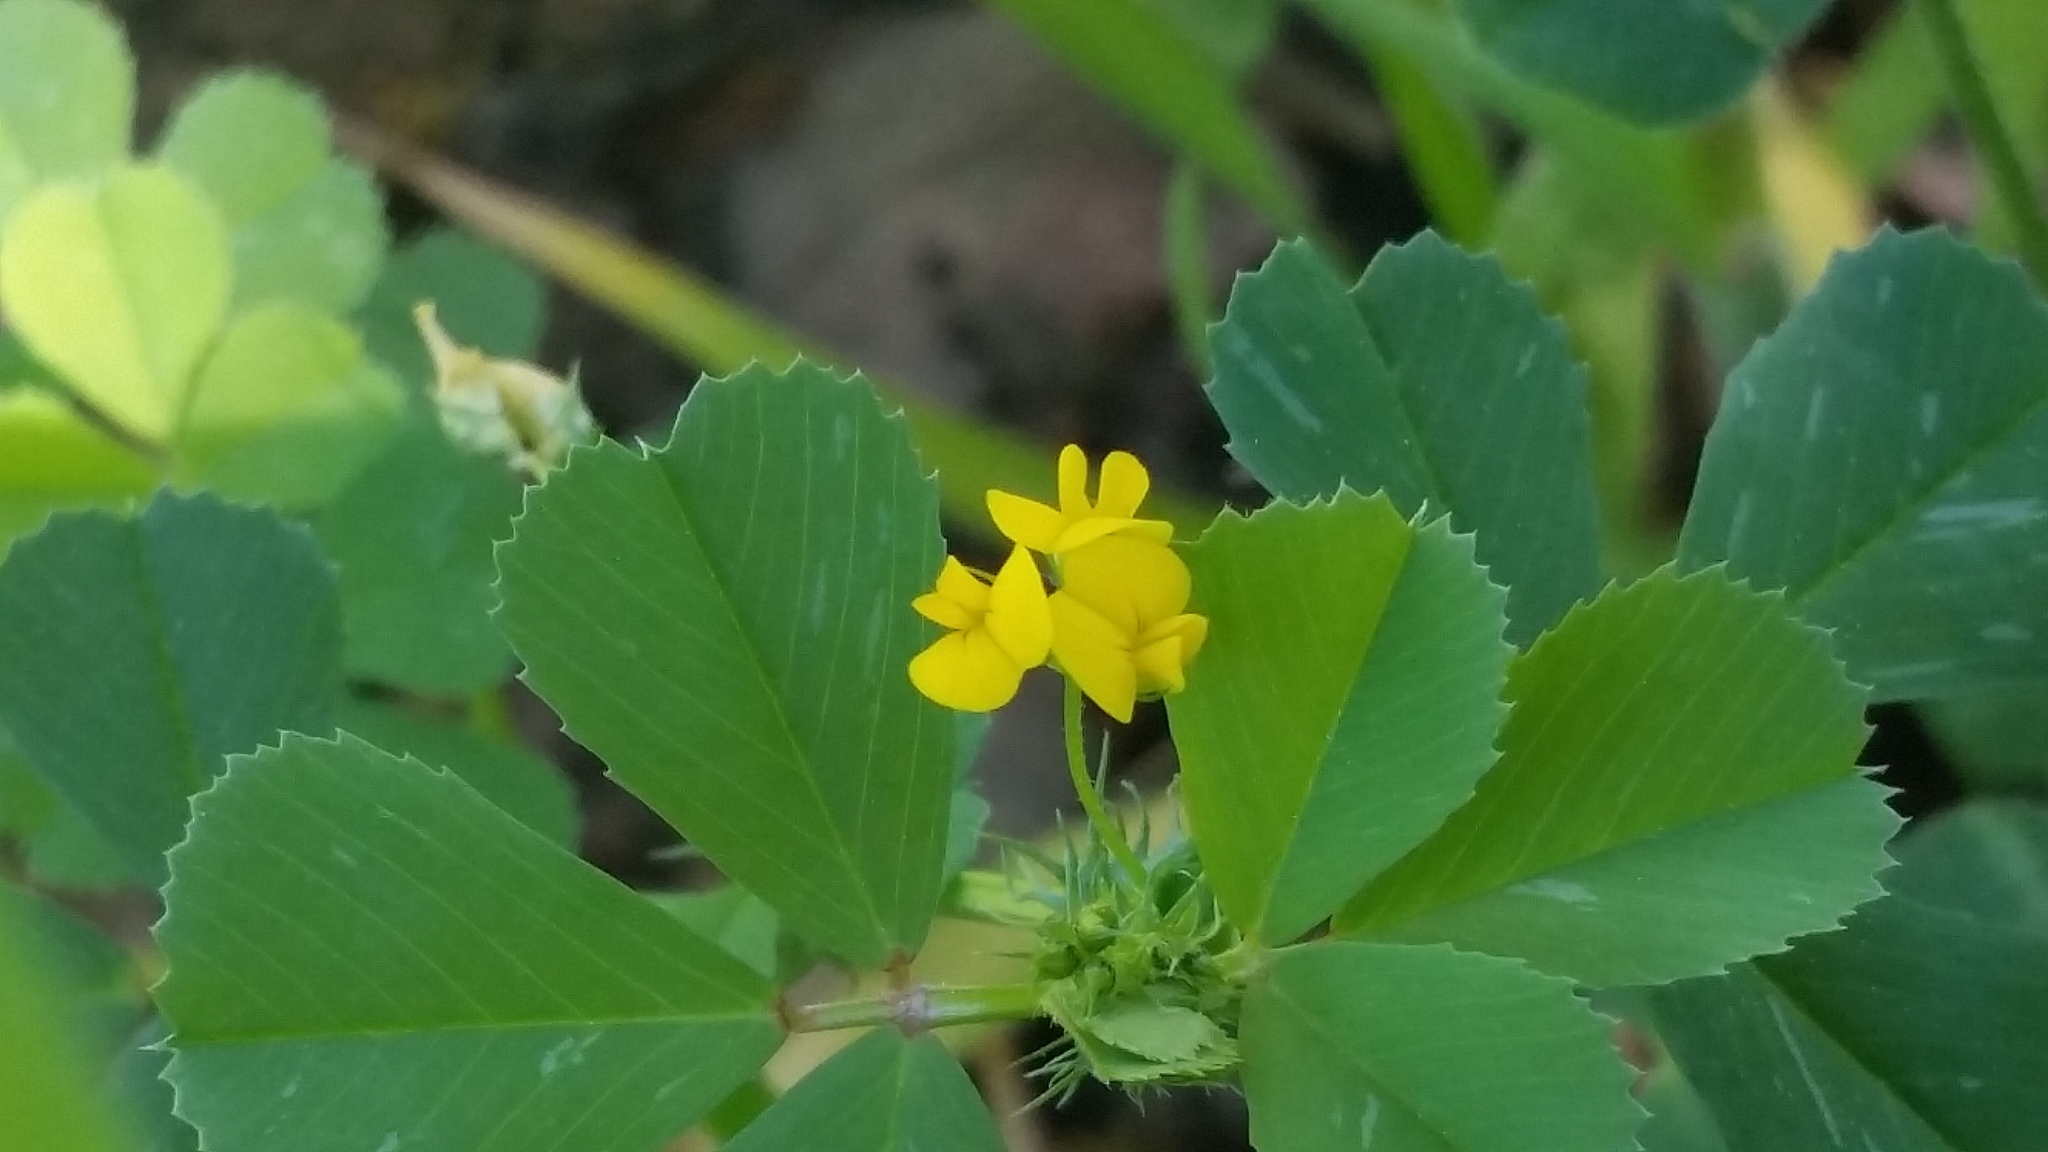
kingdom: Plantae
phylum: Tracheophyta
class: Magnoliopsida
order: Fabales
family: Fabaceae
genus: Medicago
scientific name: Medicago polymorpha
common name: Burclover
